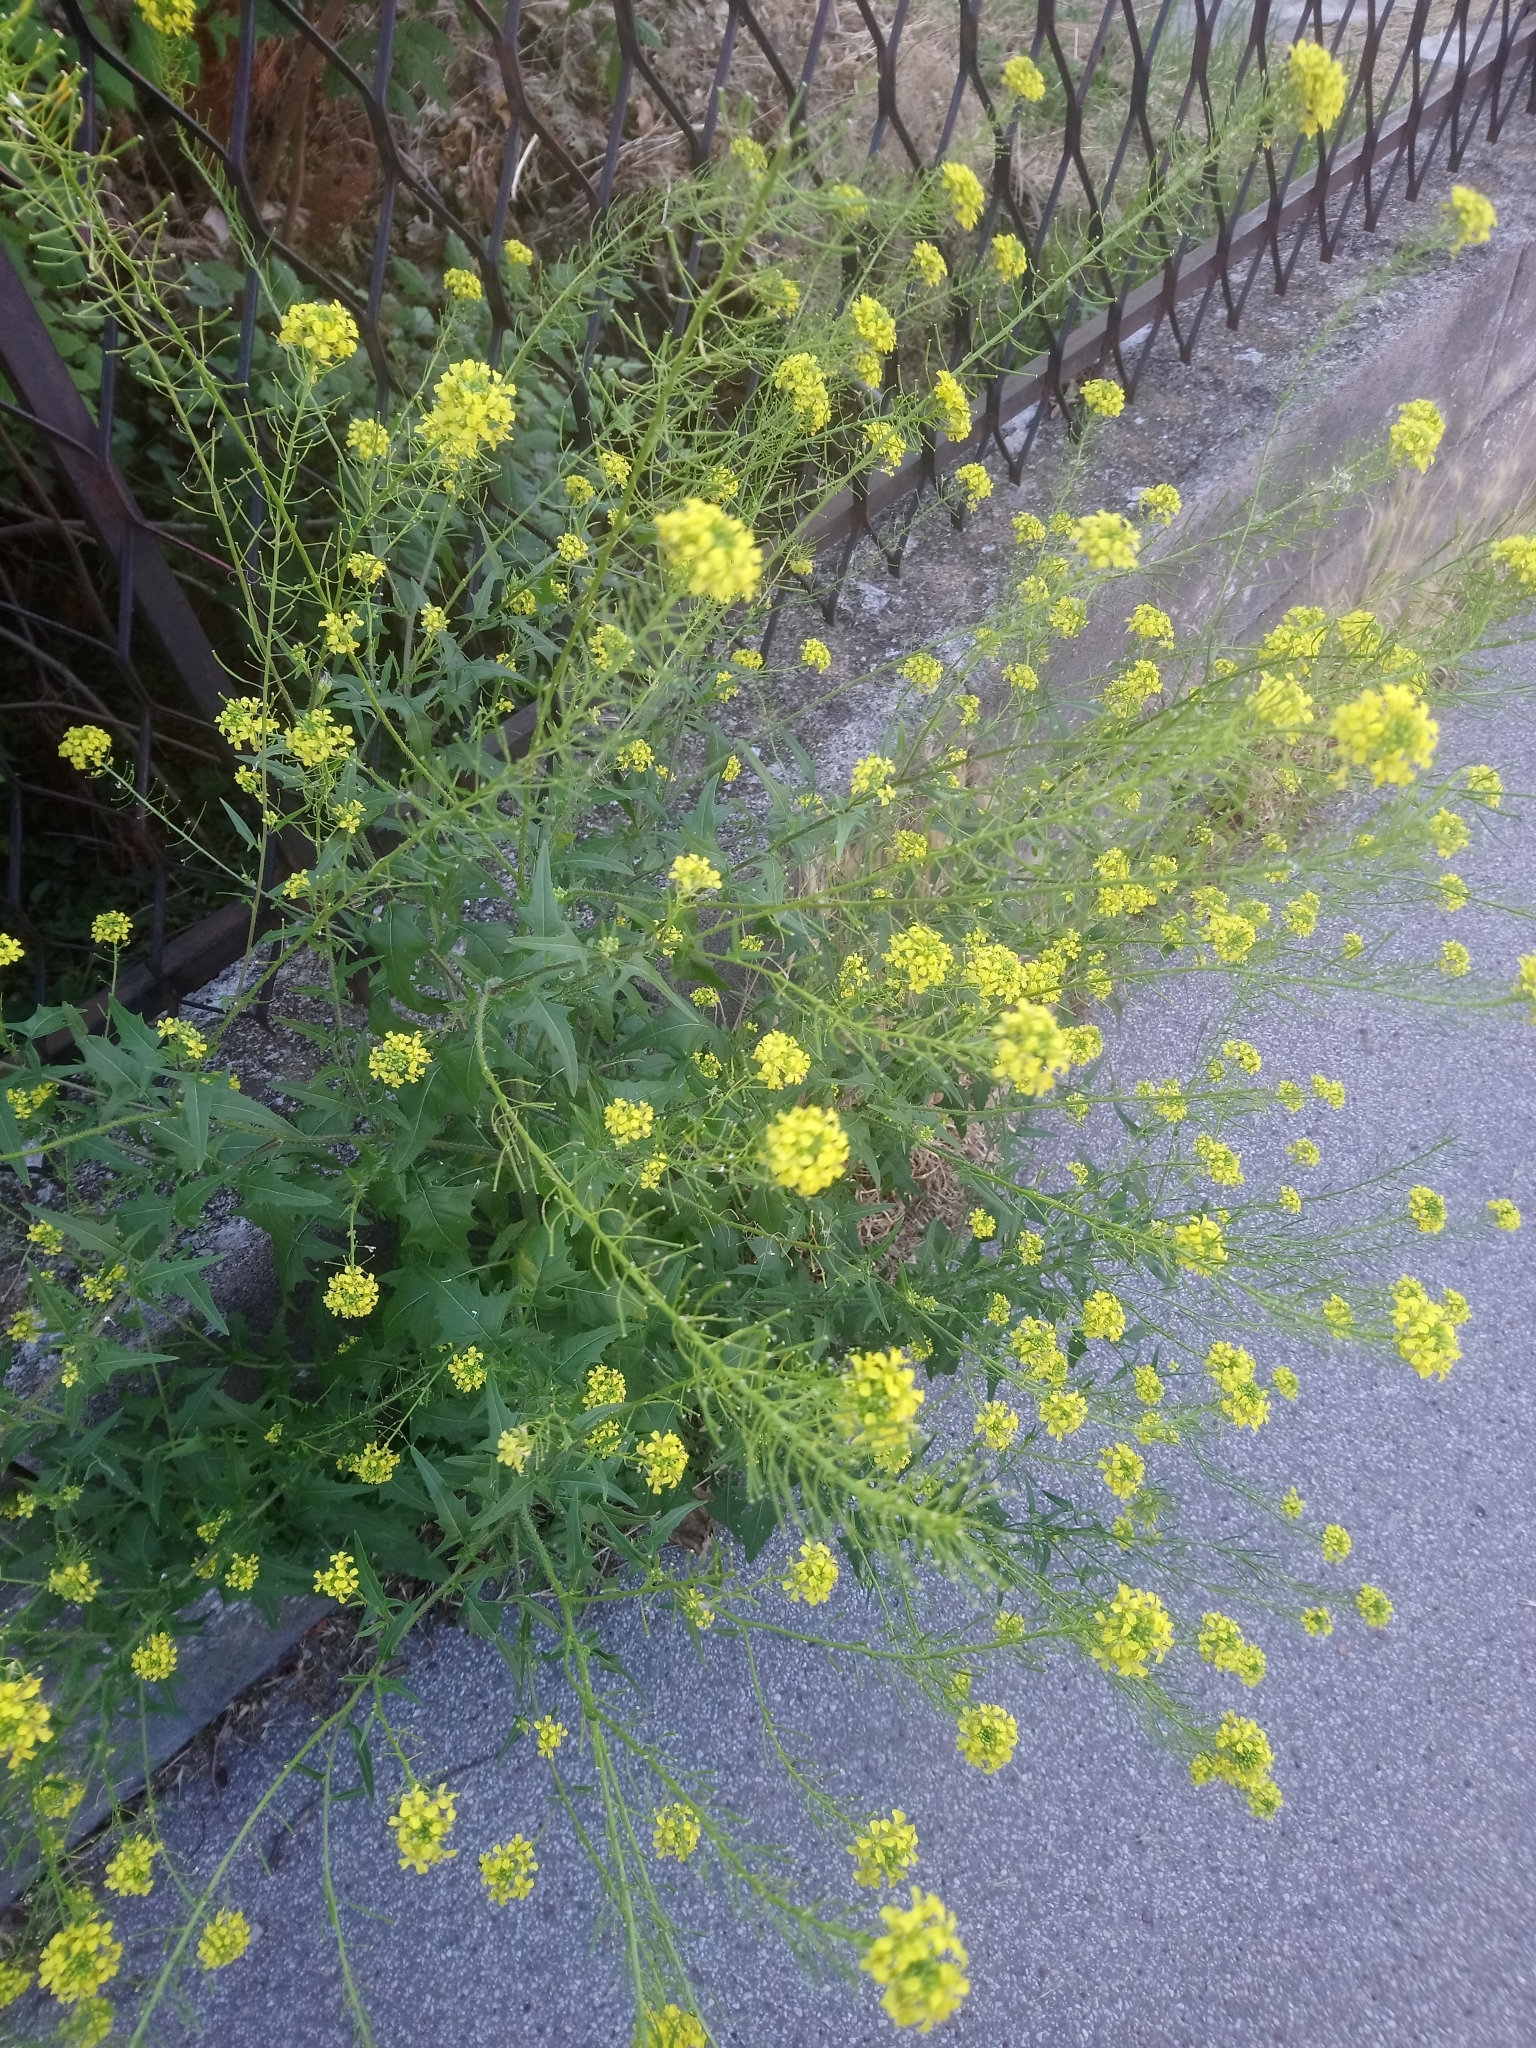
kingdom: Plantae
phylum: Tracheophyta
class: Magnoliopsida
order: Brassicales
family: Brassicaceae
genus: Sisymbrium
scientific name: Sisymbrium loeselii
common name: False london-rocket
